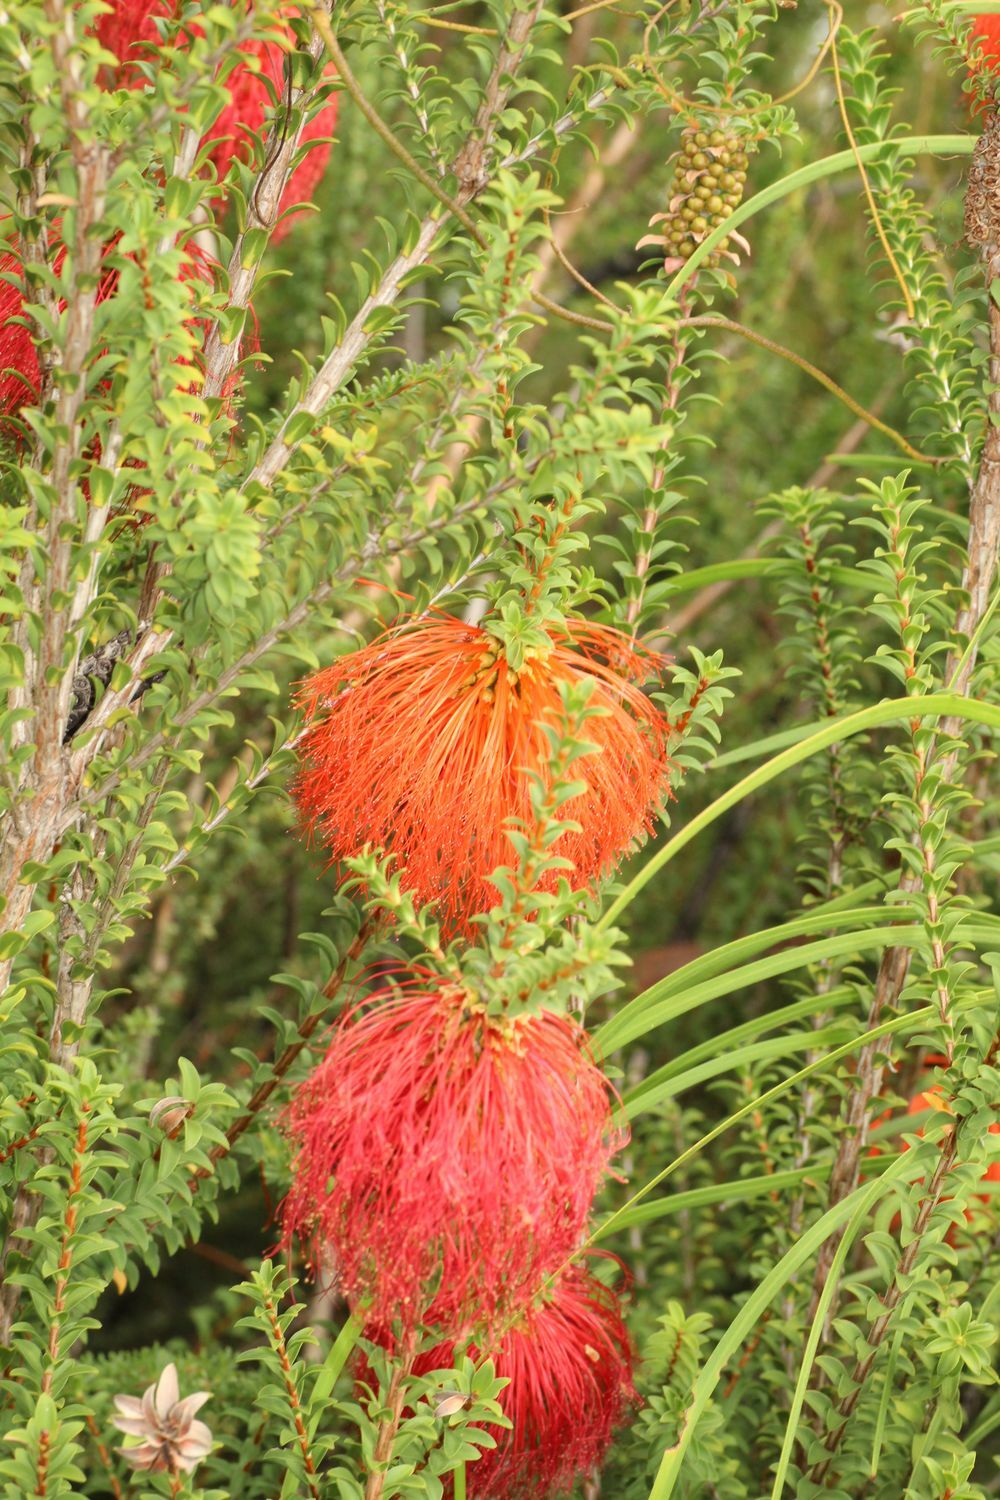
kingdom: Plantae
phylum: Tracheophyta
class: Magnoliopsida
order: Myrtales
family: Myrtaceae
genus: Melaleuca
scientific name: Melaleuca sparsa
